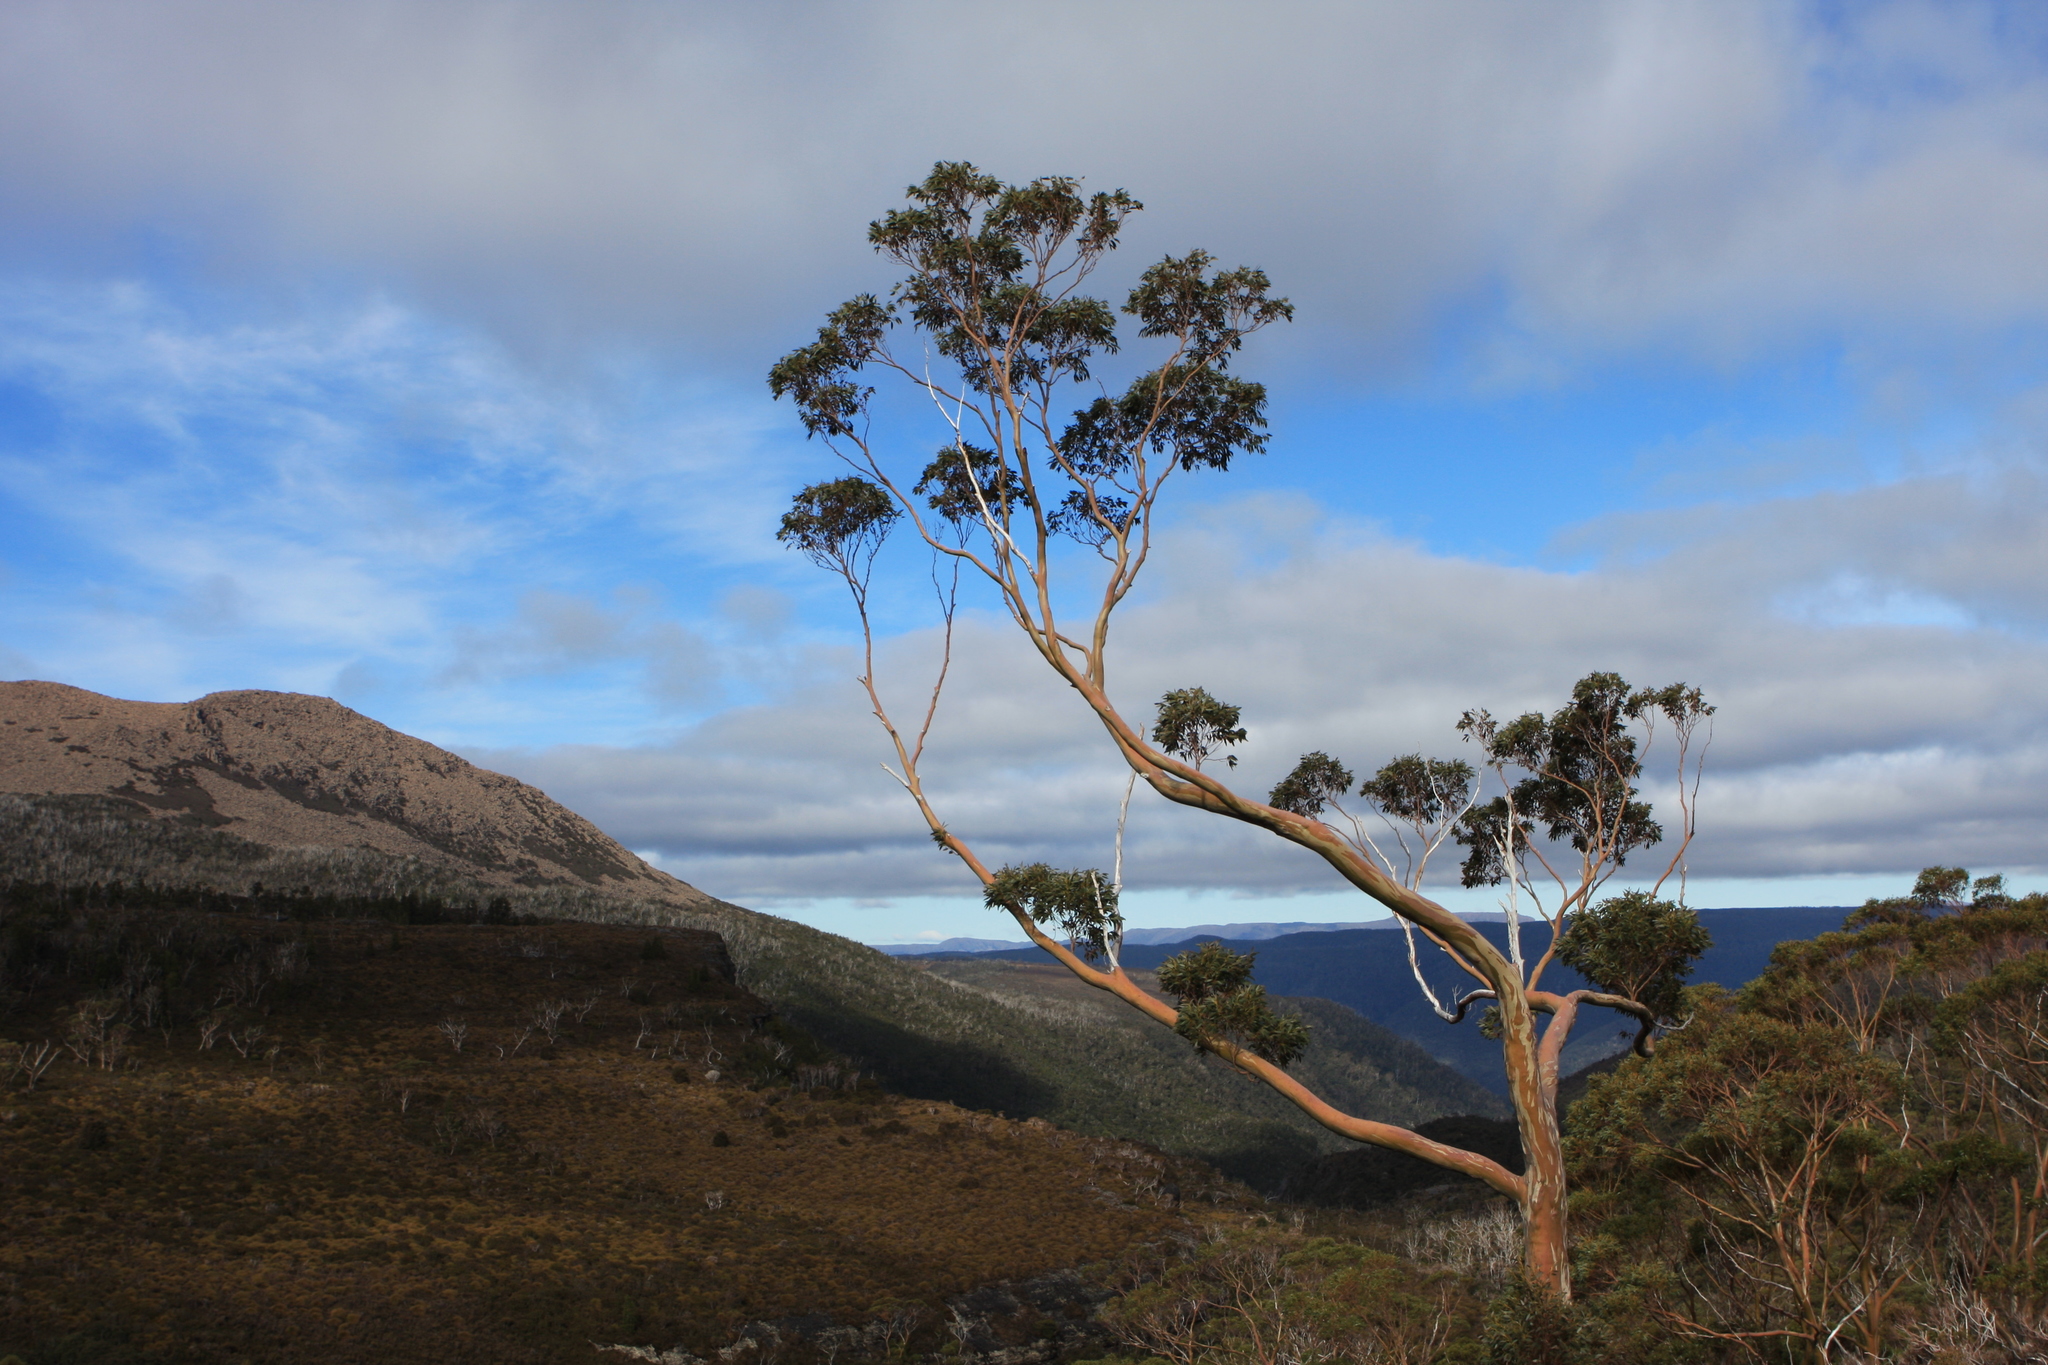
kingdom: Plantae
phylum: Tracheophyta
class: Magnoliopsida
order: Myrtales
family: Myrtaceae
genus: Eucalyptus
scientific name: Eucalyptus coccifera
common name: Tasmanian snow-gum
